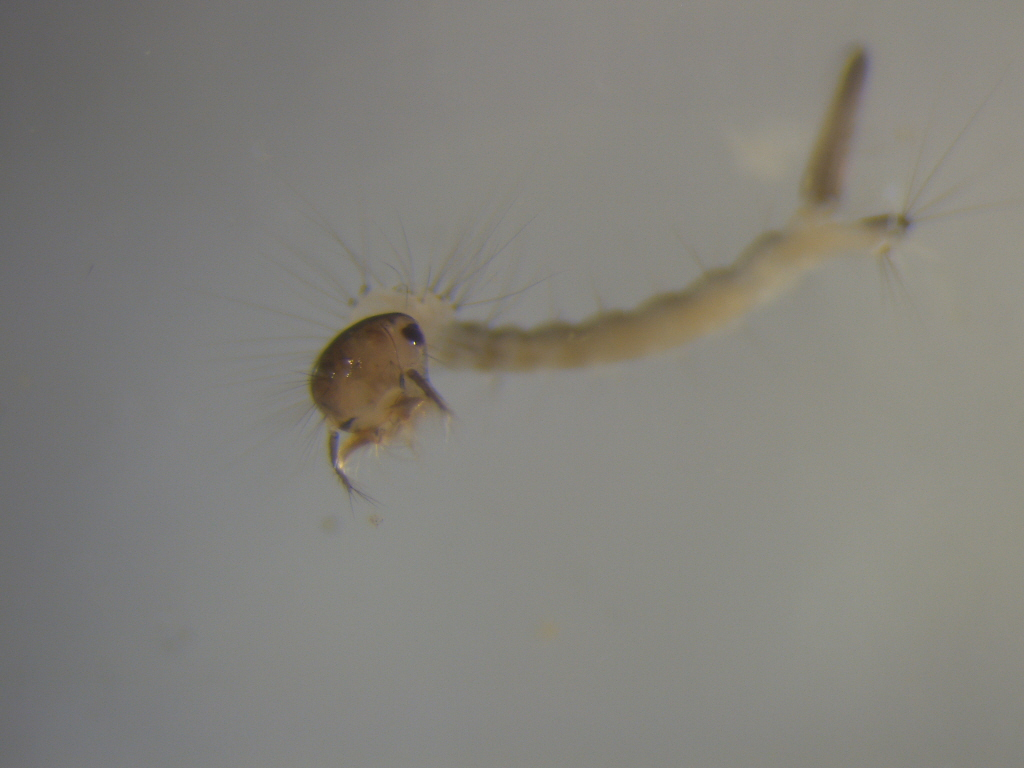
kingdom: Animalia
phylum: Arthropoda
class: Insecta
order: Diptera
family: Culicidae
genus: Culex
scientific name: Culex pervigilans
